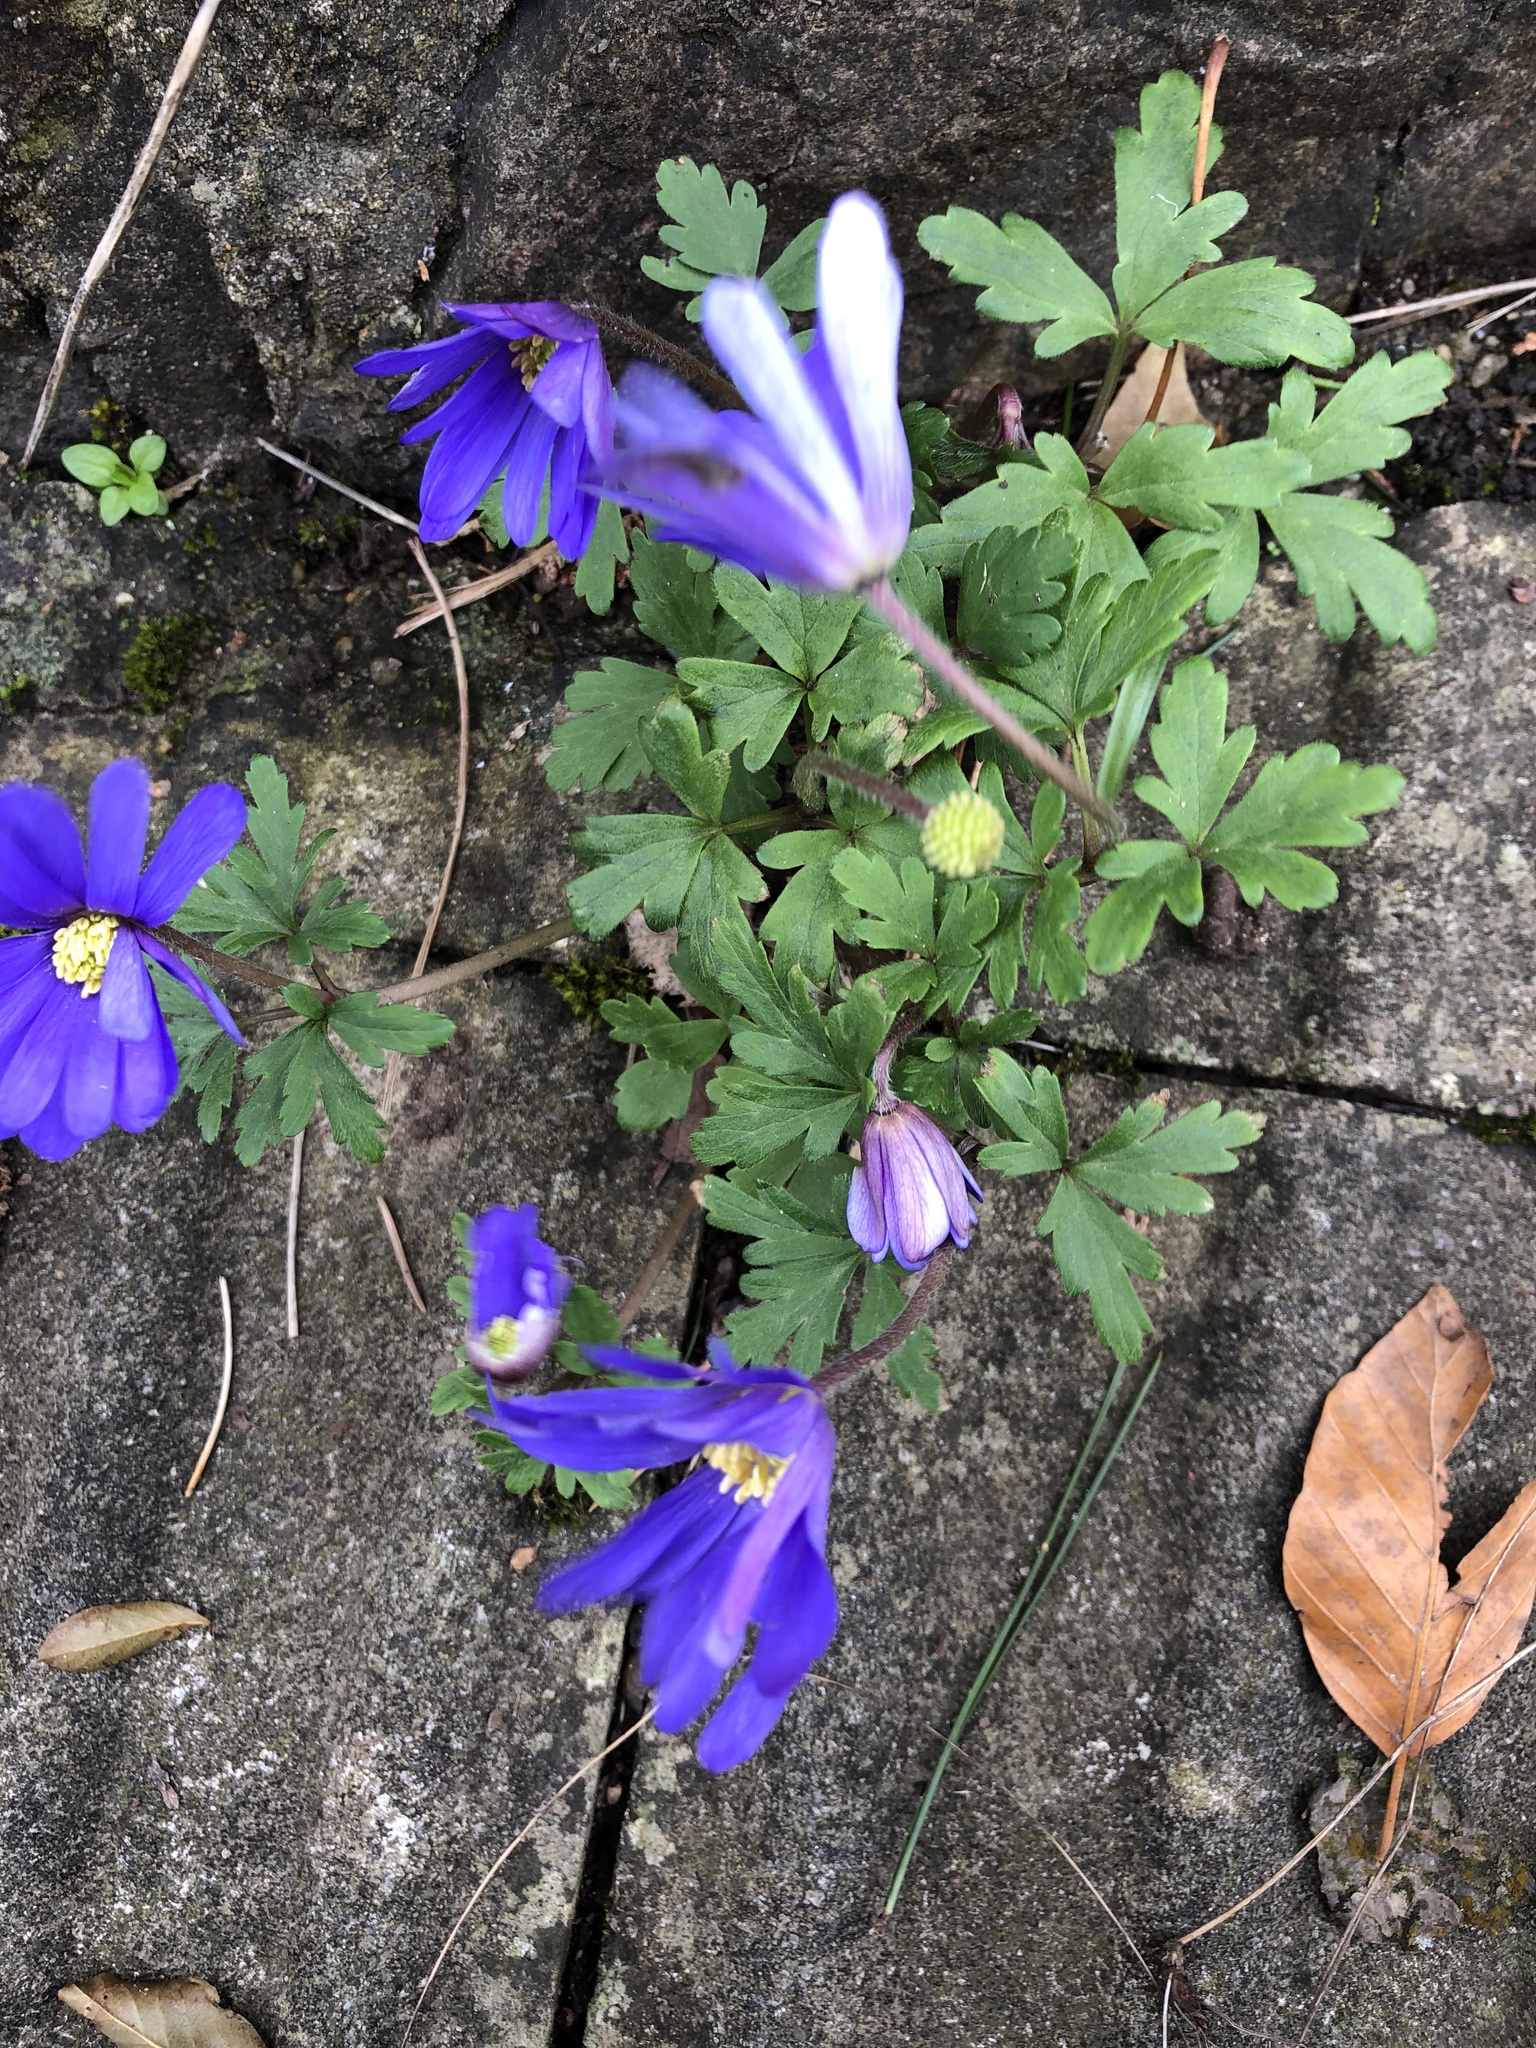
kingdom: Plantae
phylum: Tracheophyta
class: Magnoliopsida
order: Ranunculales
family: Ranunculaceae
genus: Anemone
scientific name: Anemone blanda
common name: Balkan anemone
